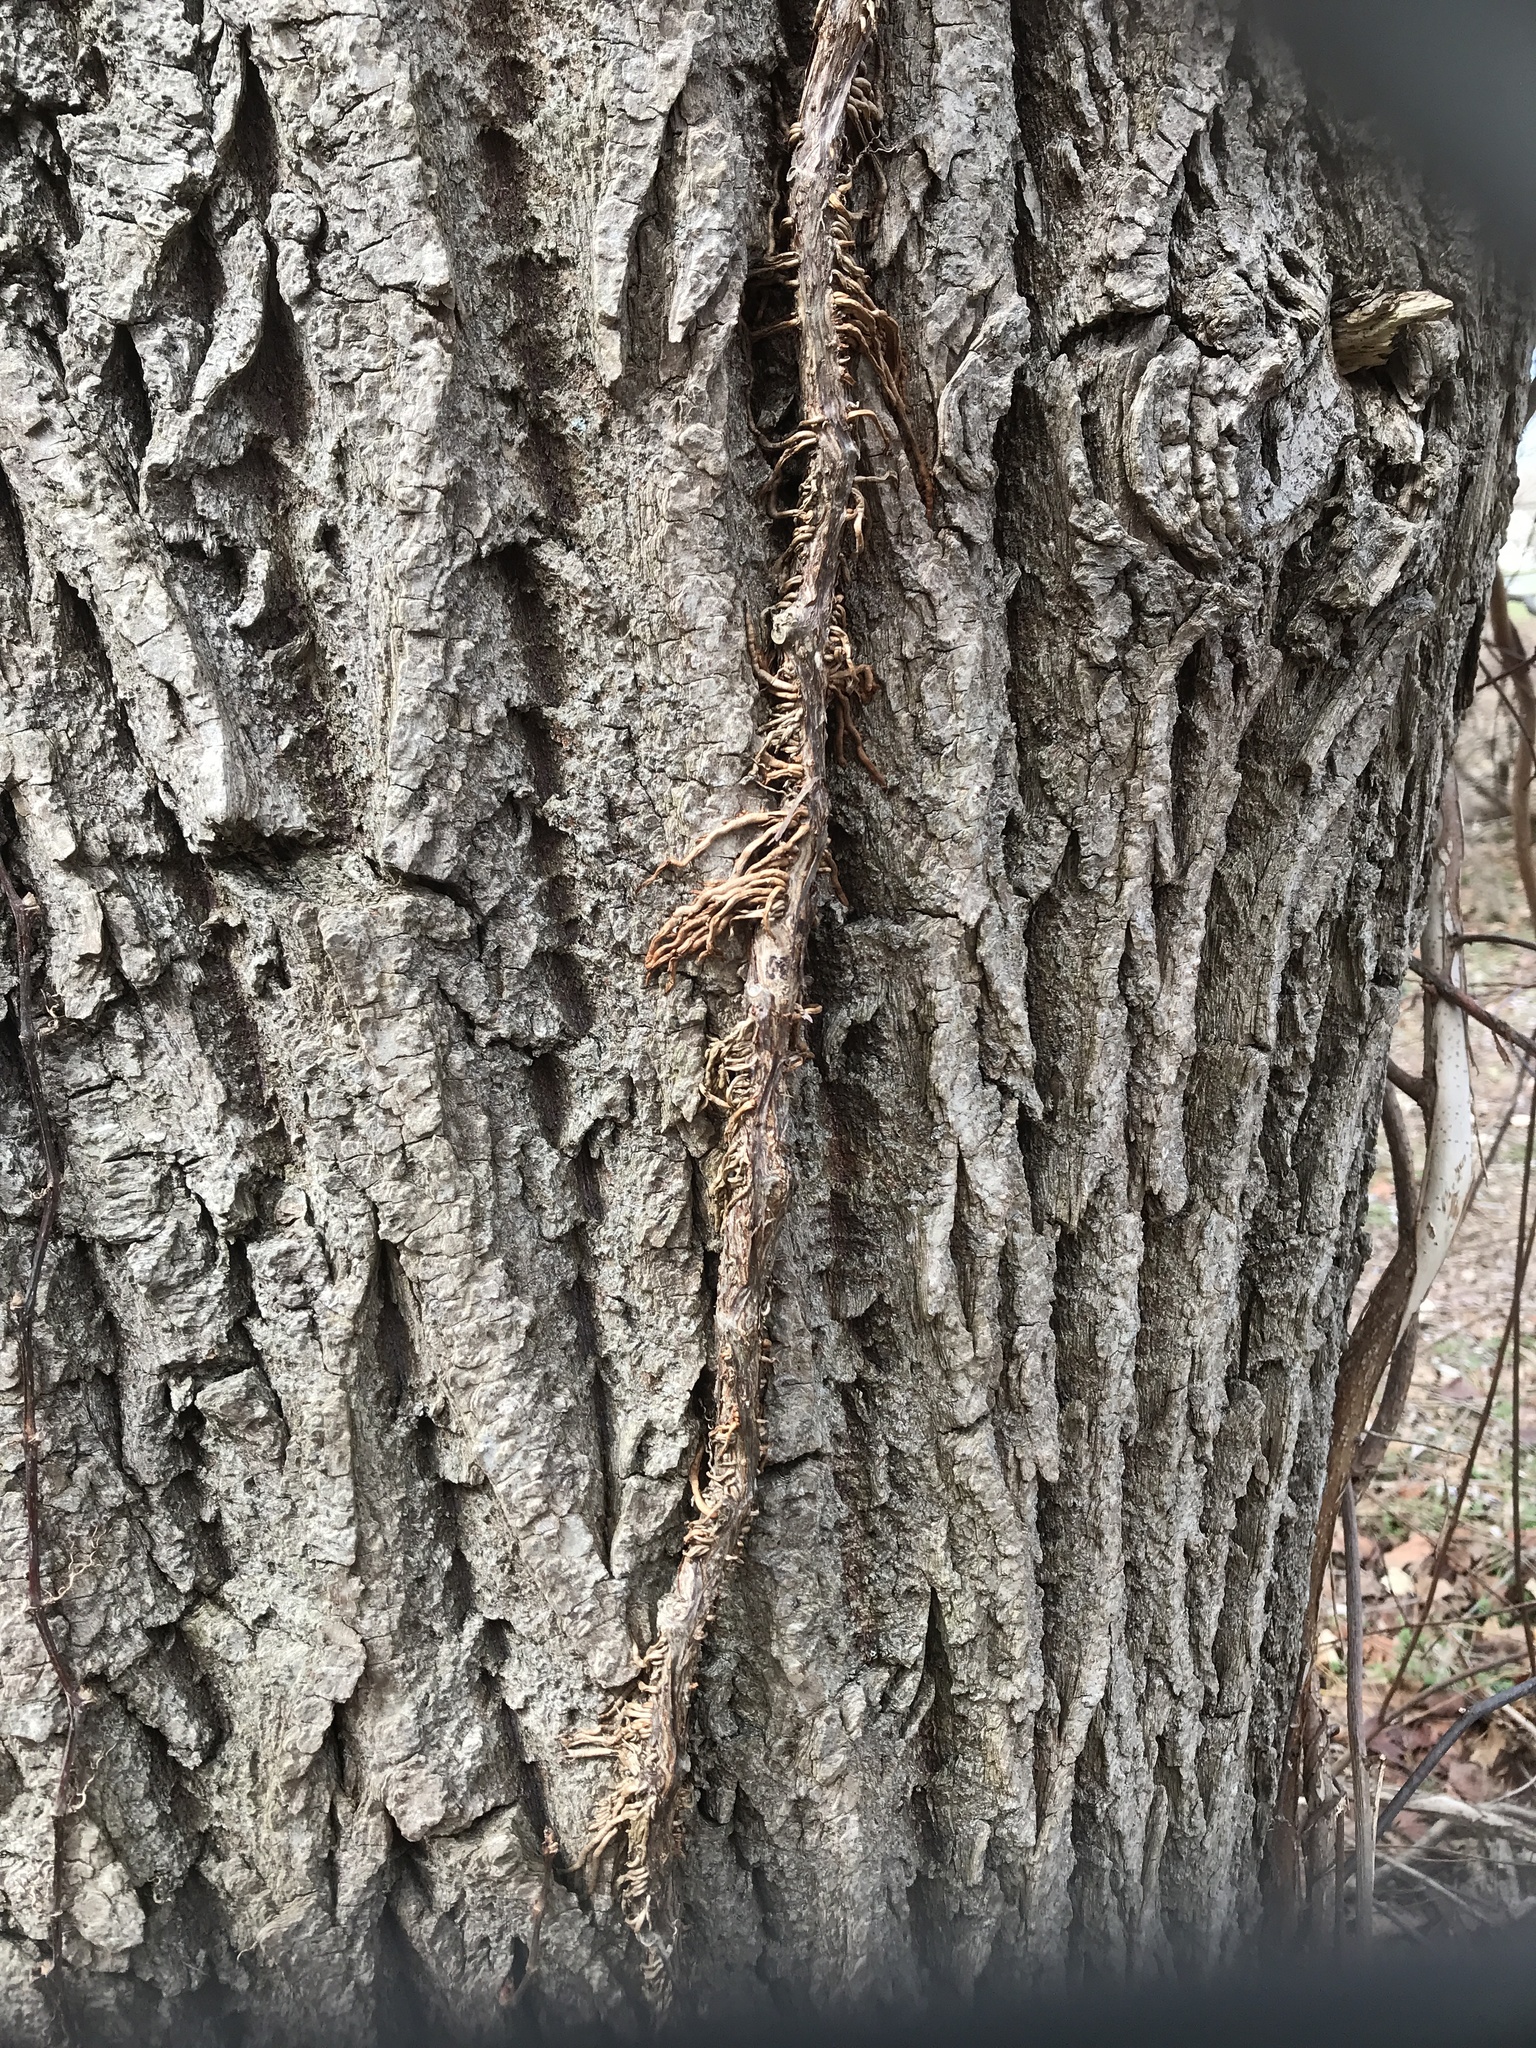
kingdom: Plantae
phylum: Tracheophyta
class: Magnoliopsida
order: Fagales
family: Juglandaceae
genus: Juglans
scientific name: Juglans
